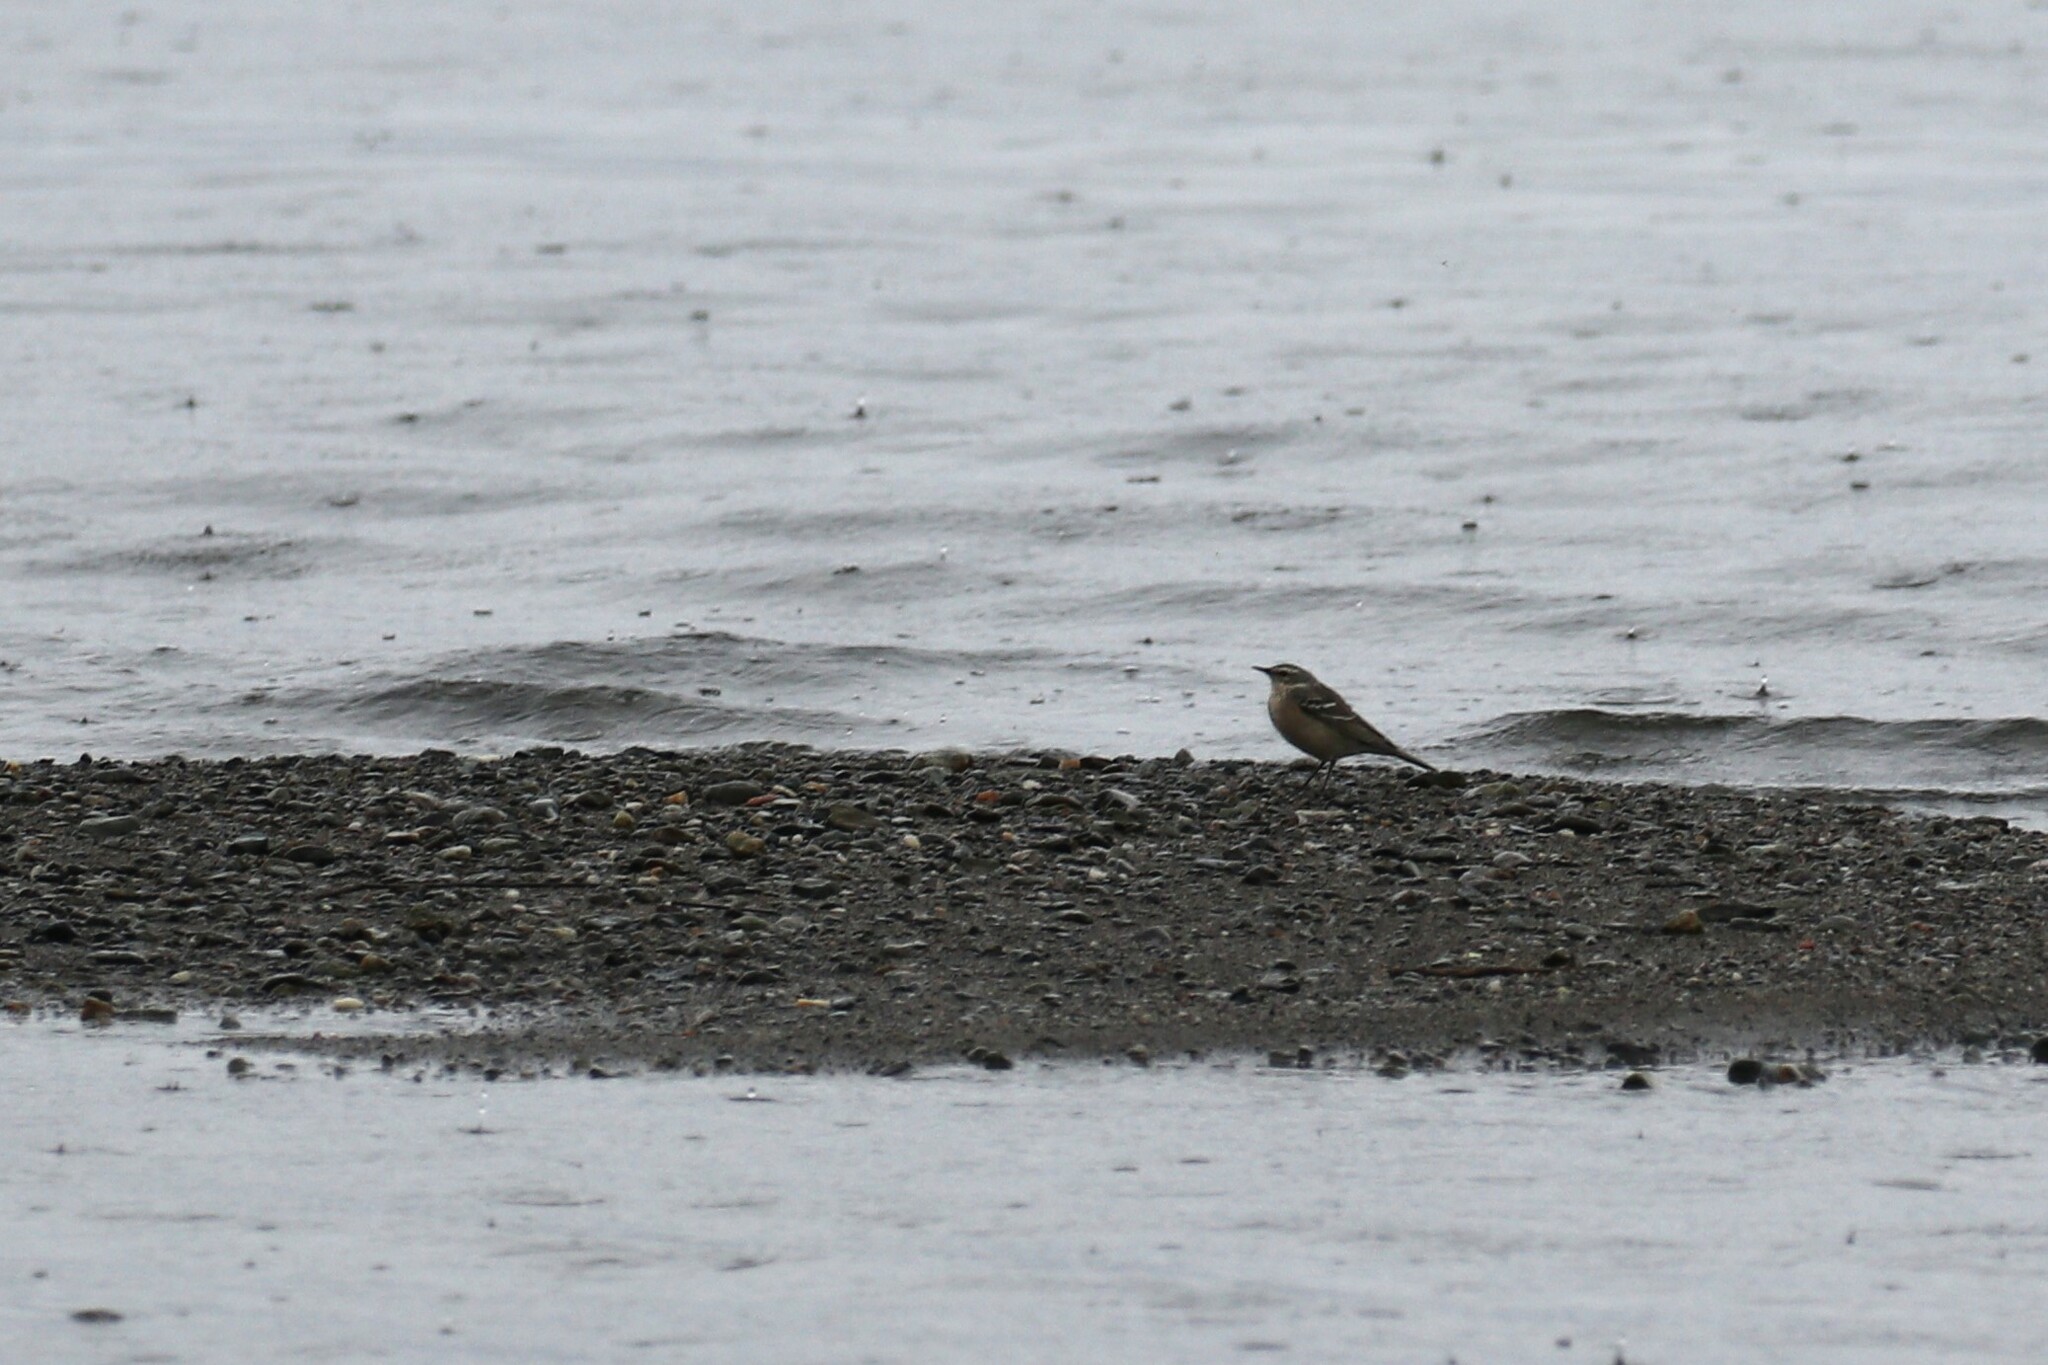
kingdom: Animalia
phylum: Chordata
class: Aves
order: Passeriformes
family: Motacillidae
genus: Anthus
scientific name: Anthus spinoletta
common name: Water pipit
